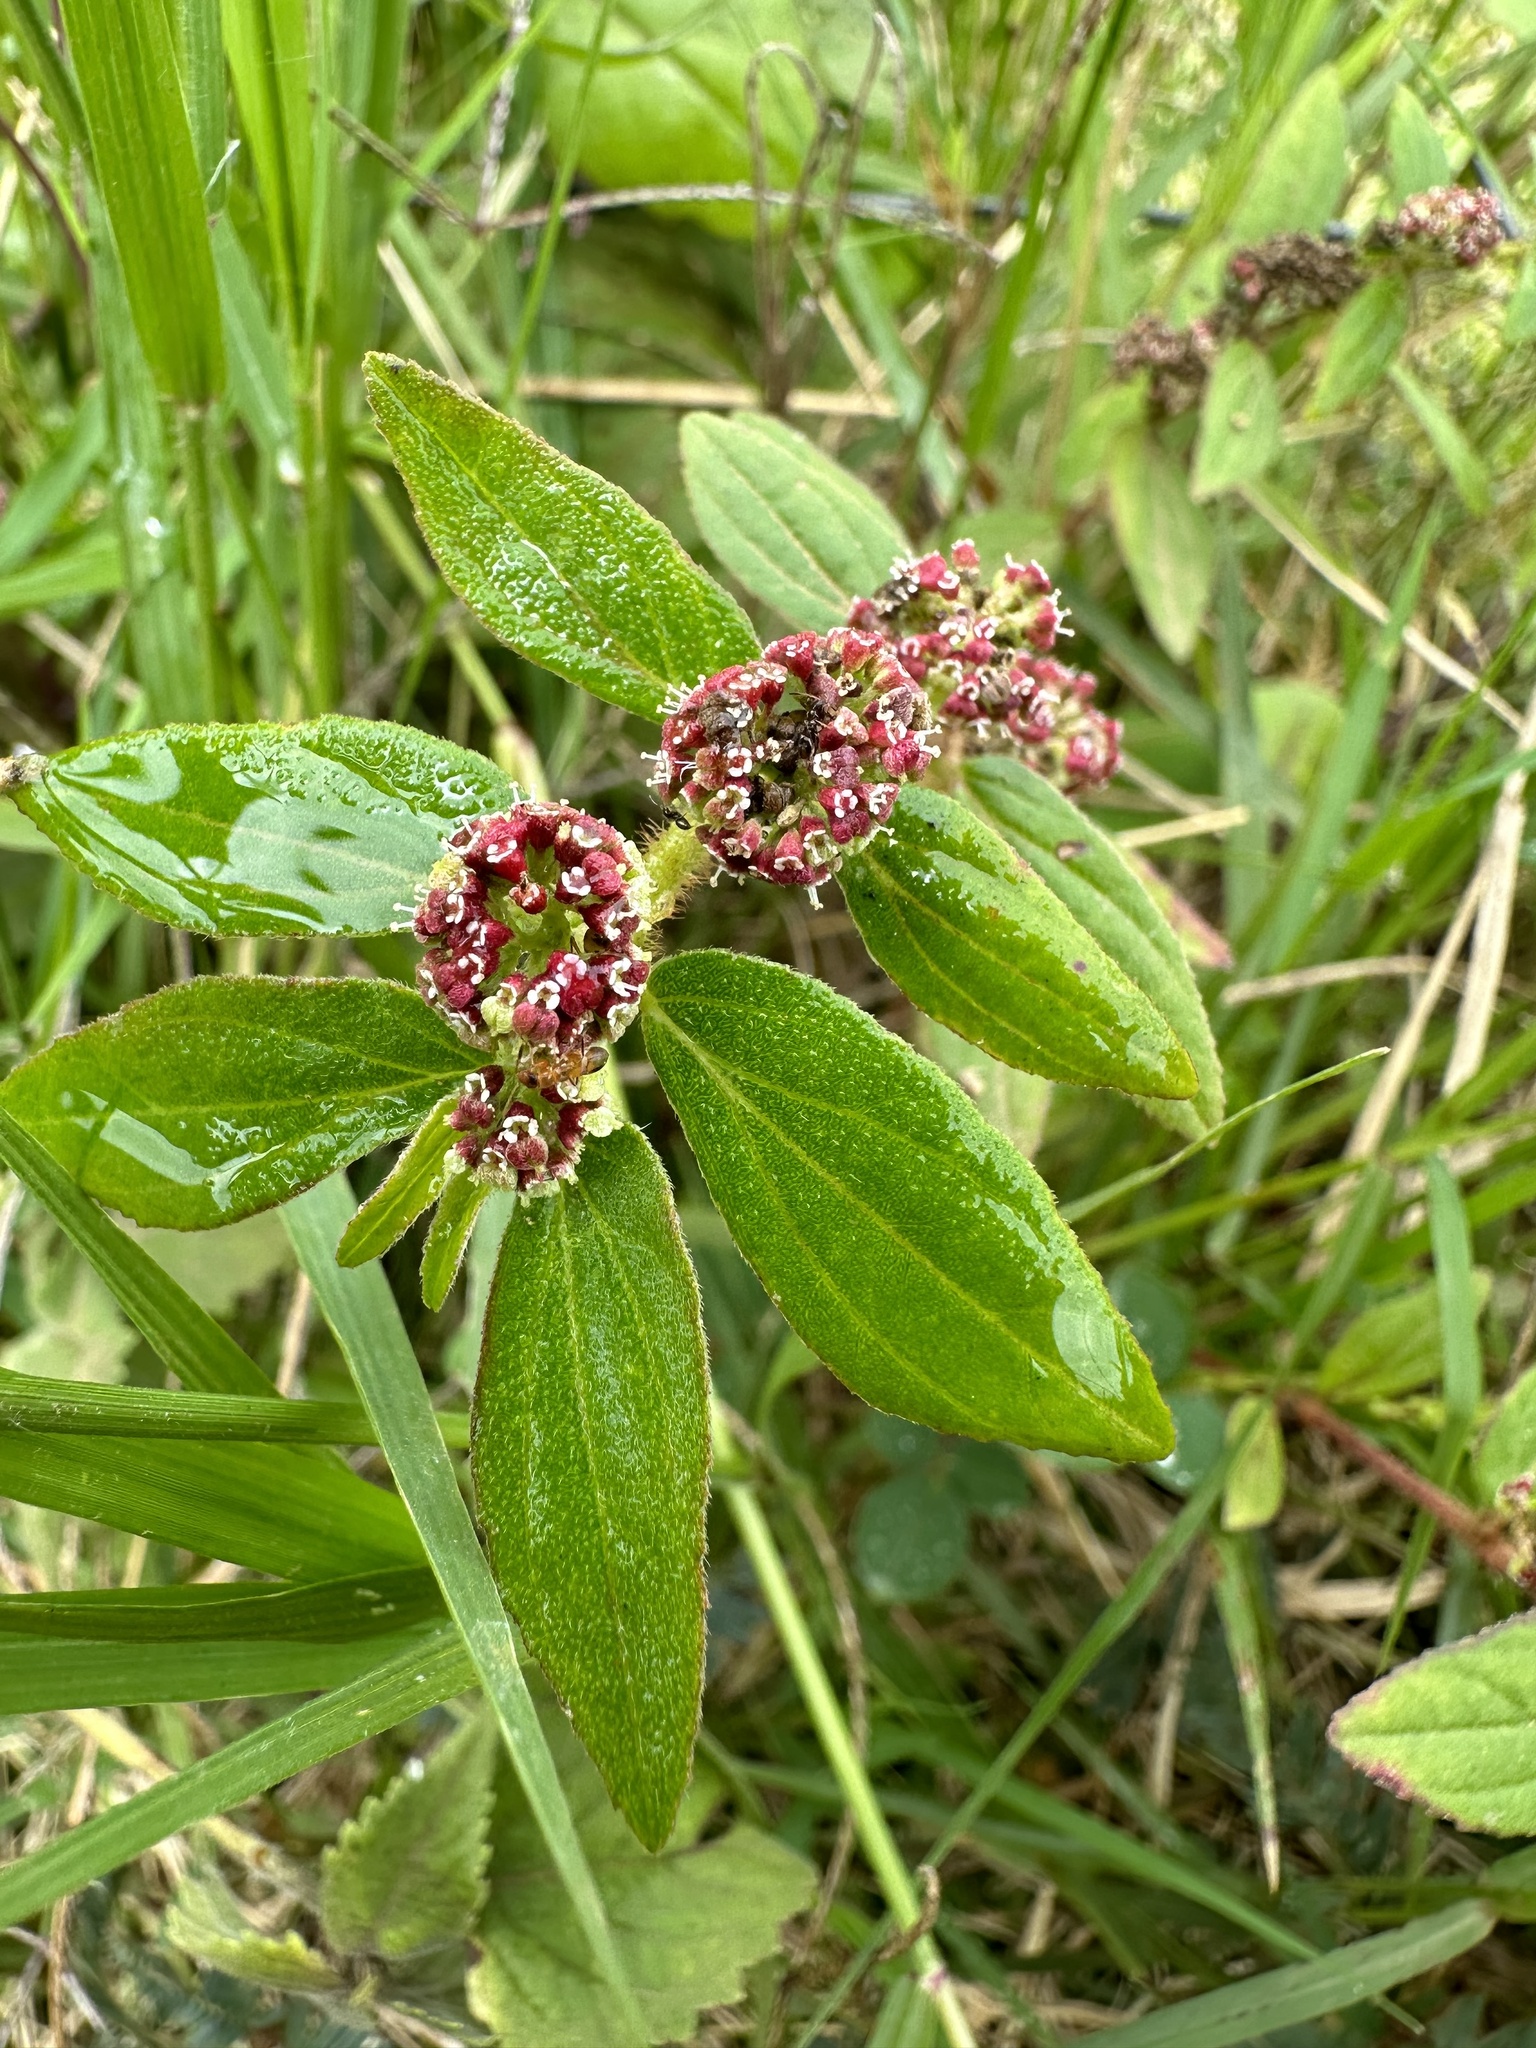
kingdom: Plantae
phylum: Tracheophyta
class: Magnoliopsida
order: Malpighiales
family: Euphorbiaceae
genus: Euphorbia
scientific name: Euphorbia hirta
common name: Pillpod sandmat
